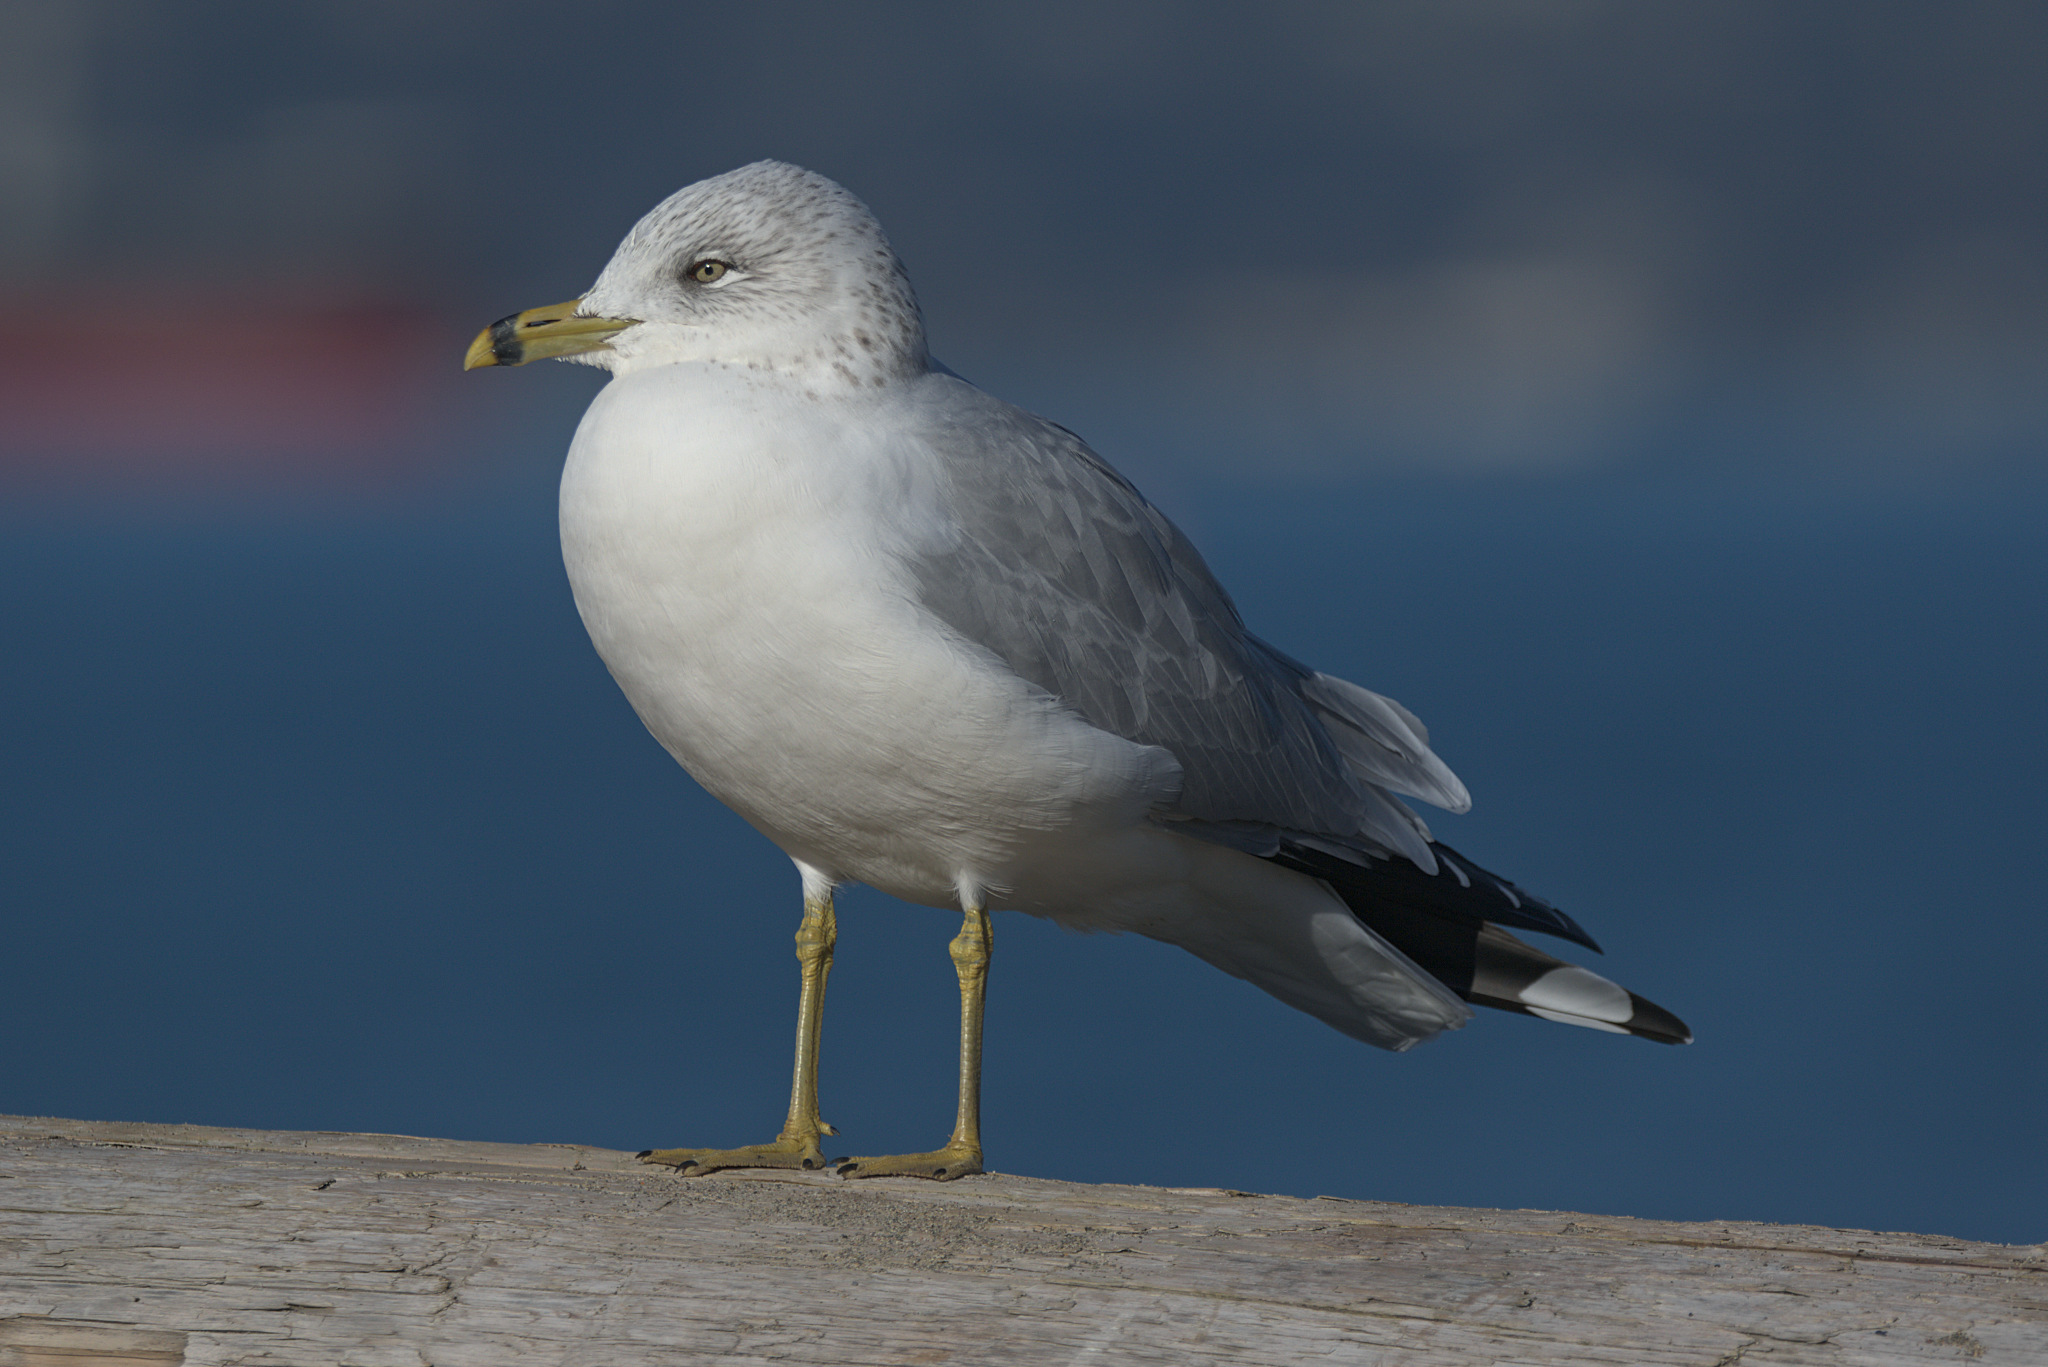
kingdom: Animalia
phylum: Chordata
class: Aves
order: Charadriiformes
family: Laridae
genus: Larus
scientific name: Larus delawarensis
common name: Ring-billed gull
